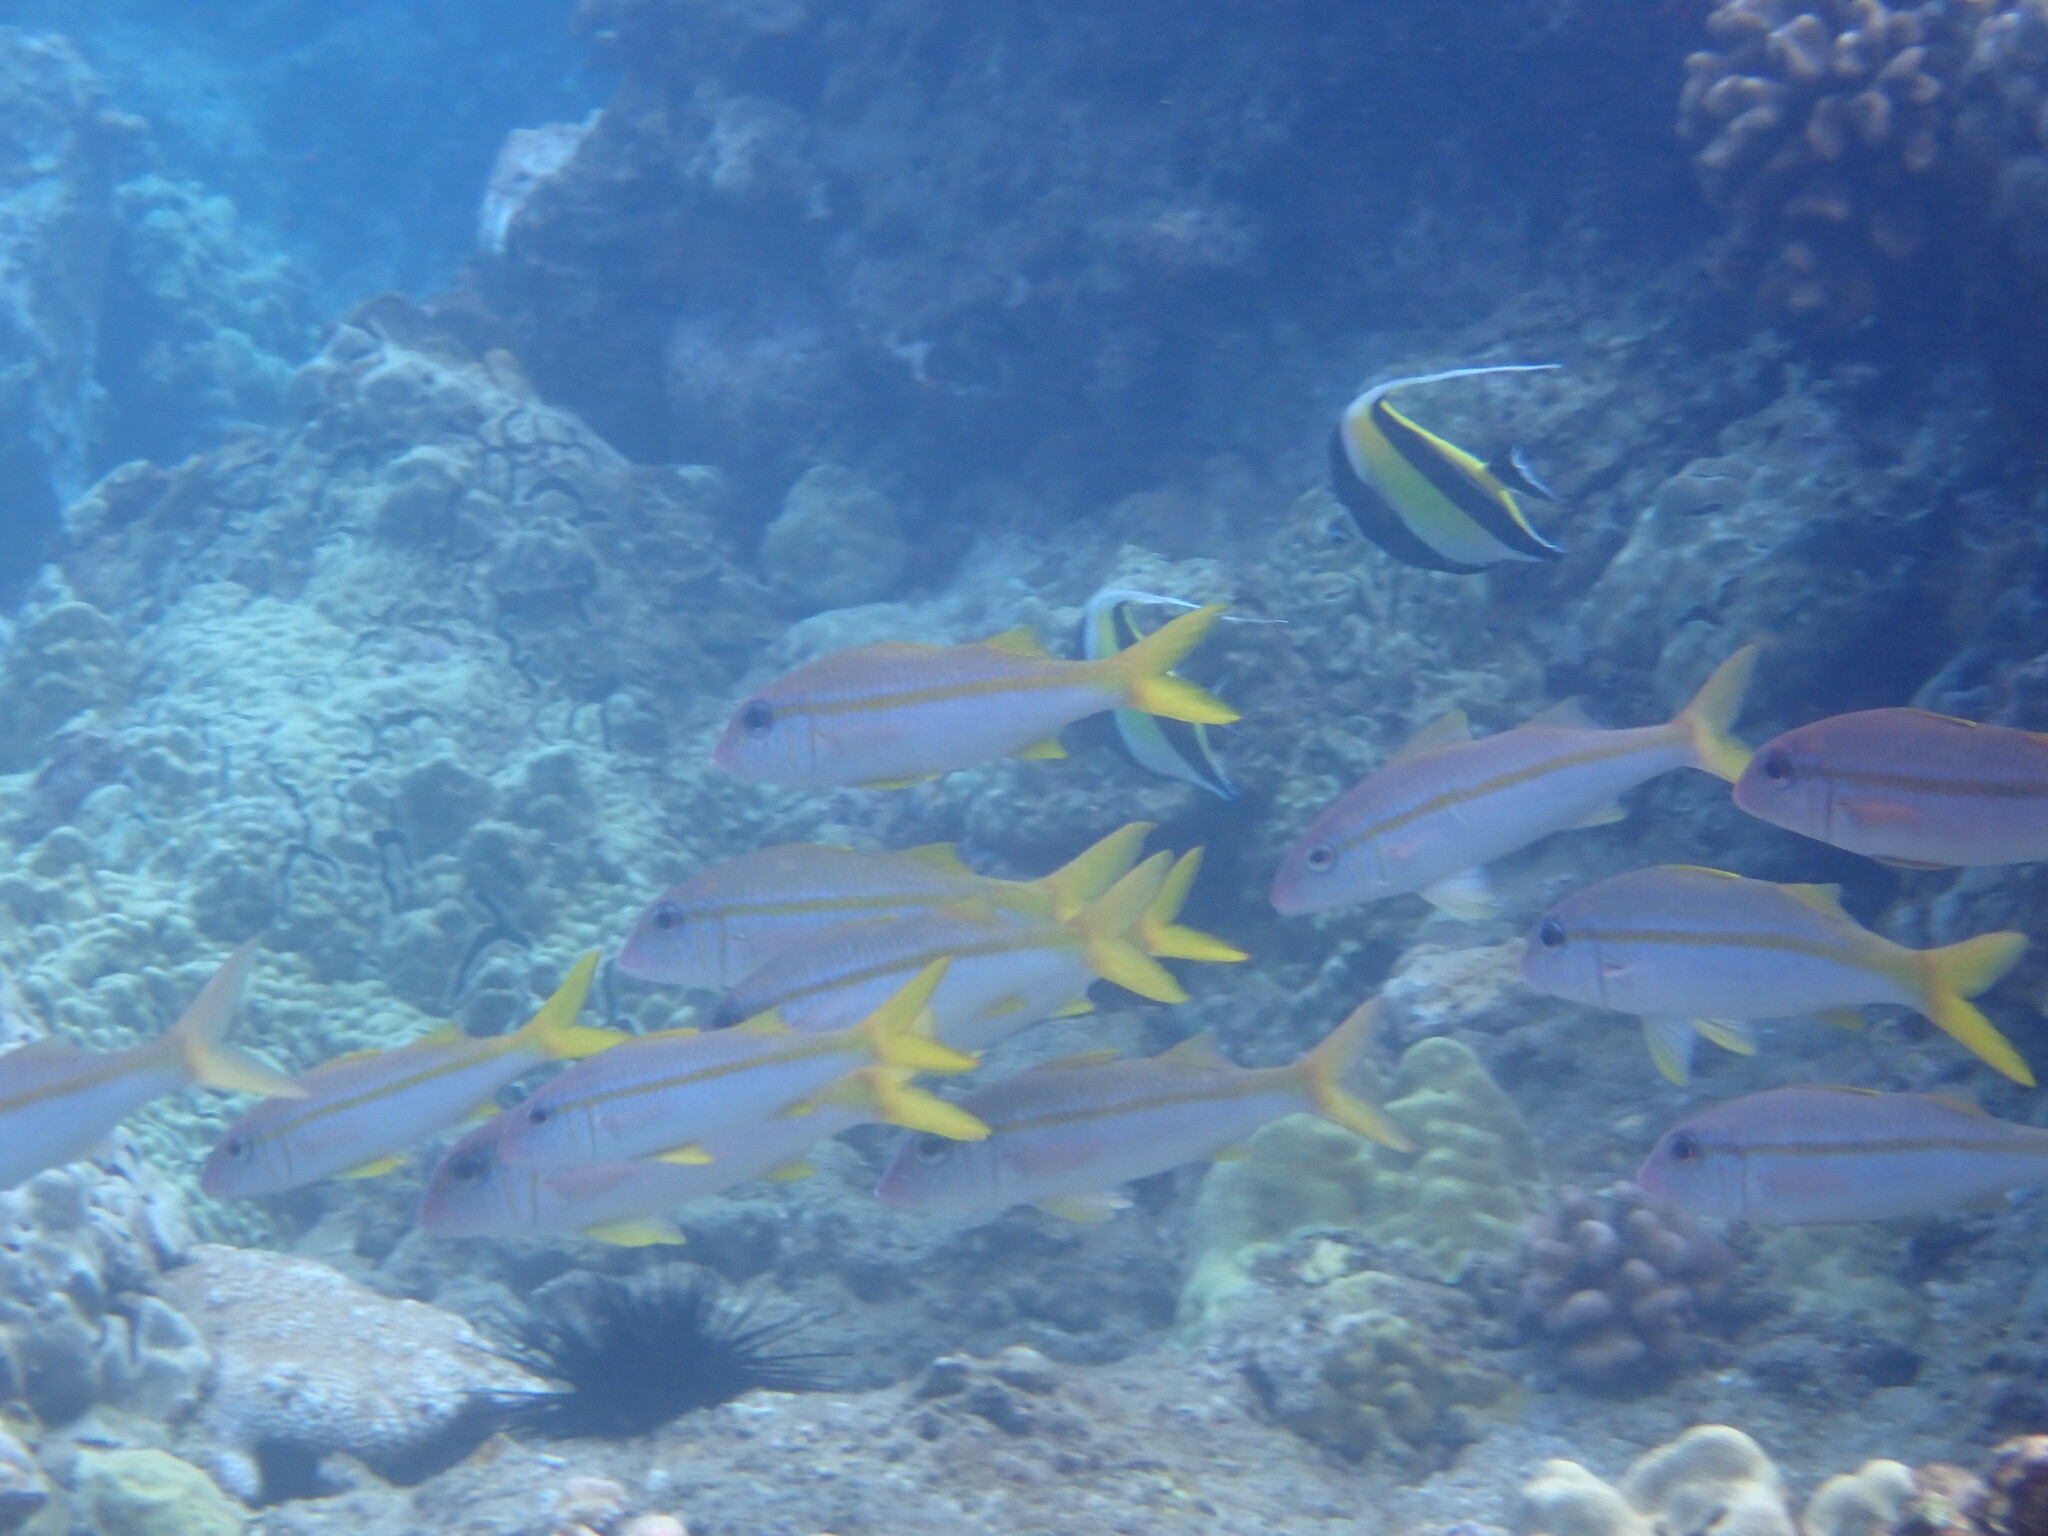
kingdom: Animalia
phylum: Chordata
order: Perciformes
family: Mullidae
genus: Mulloidichthys
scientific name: Mulloidichthys vanicolensis
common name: Yellowfin goatfish
